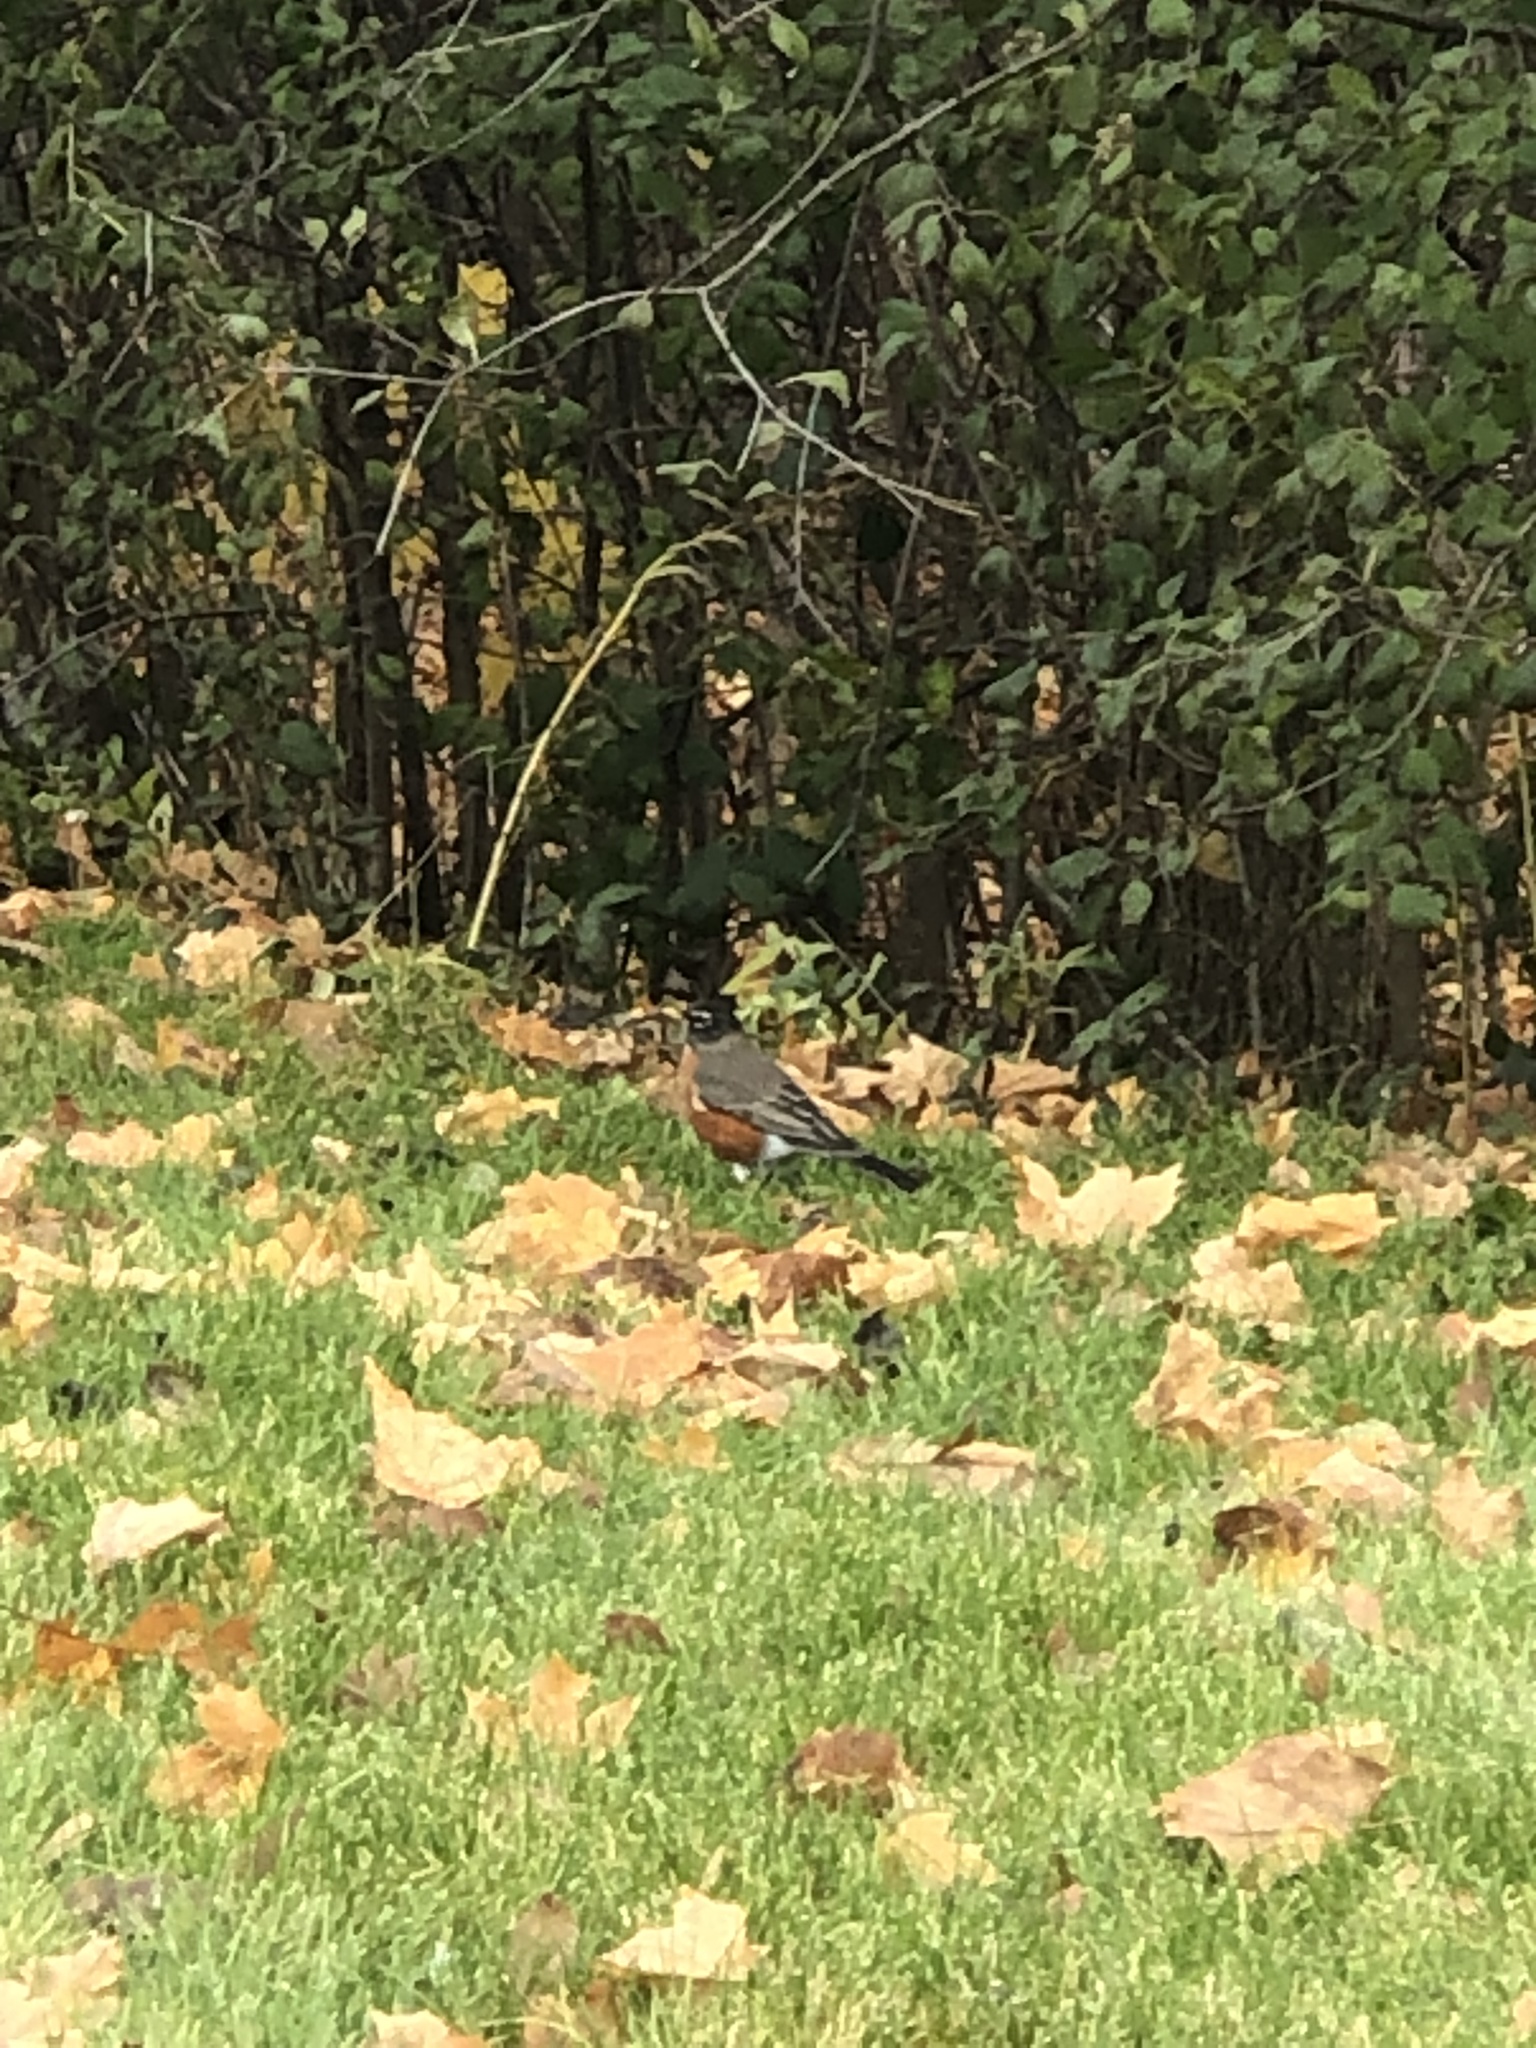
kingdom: Animalia
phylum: Chordata
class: Aves
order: Passeriformes
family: Turdidae
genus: Turdus
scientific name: Turdus migratorius
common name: American robin
